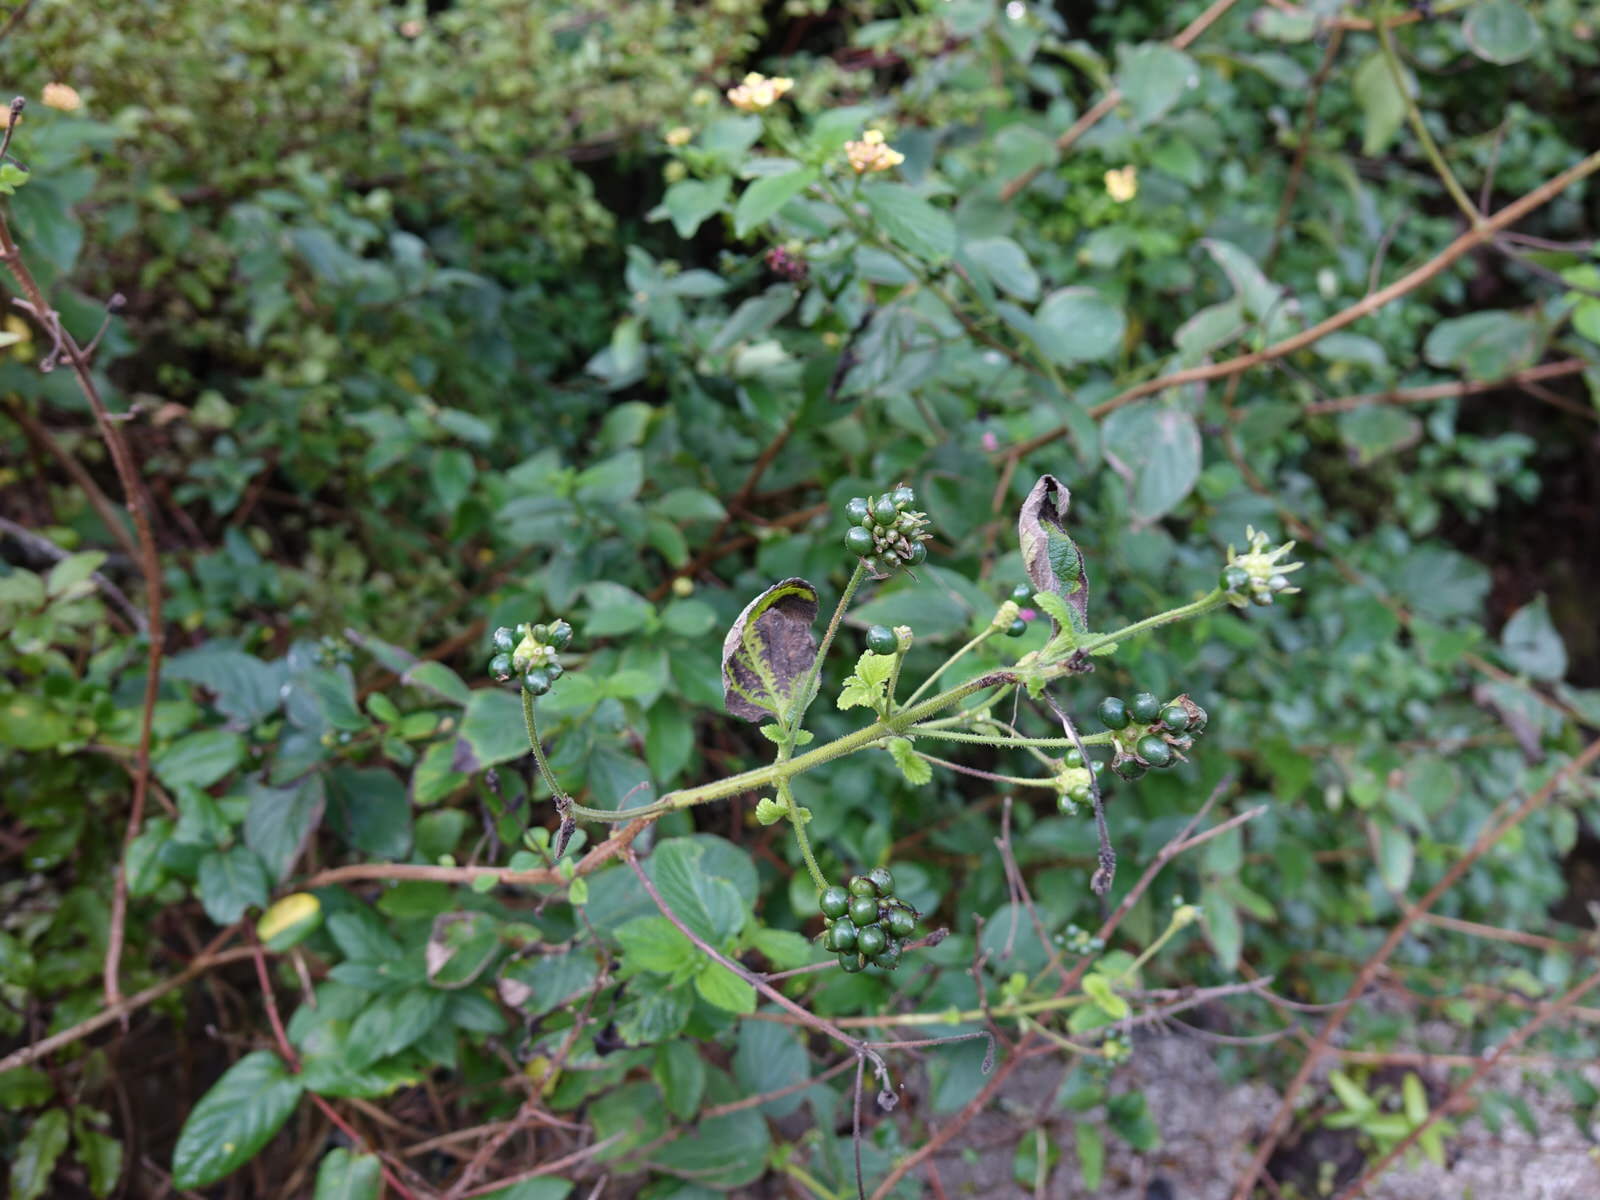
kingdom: Plantae
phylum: Tracheophyta
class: Magnoliopsida
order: Lamiales
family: Verbenaceae
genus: Lantana
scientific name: Lantana camara
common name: Lantana
